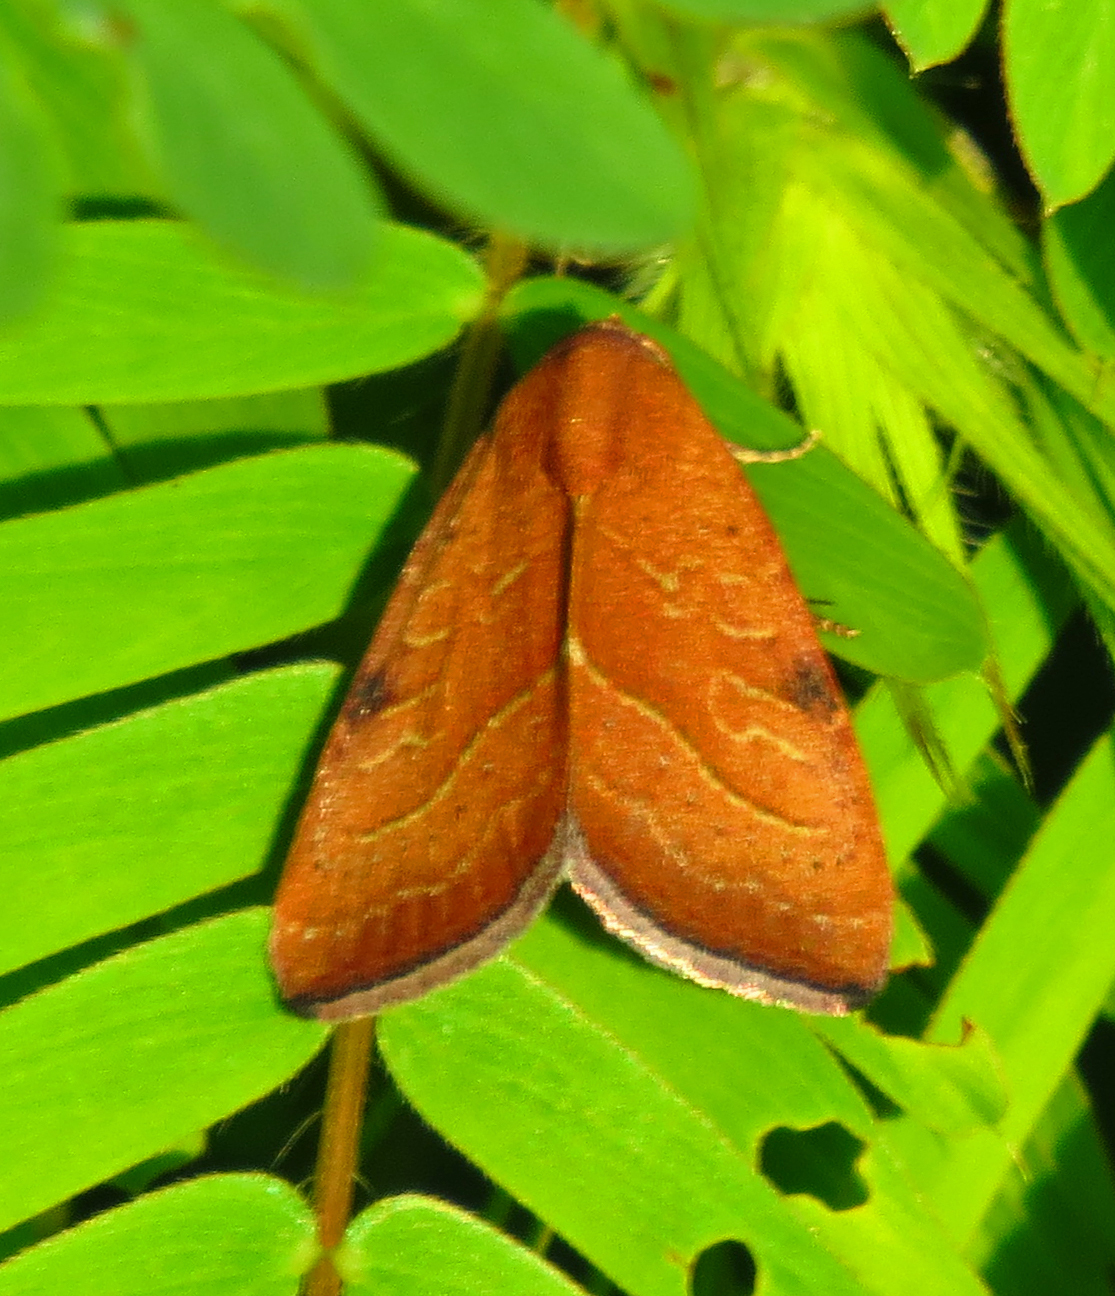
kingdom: Animalia
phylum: Arthropoda
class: Insecta
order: Lepidoptera
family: Noctuidae
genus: Galgula
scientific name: Galgula partita
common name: Wedgeling
